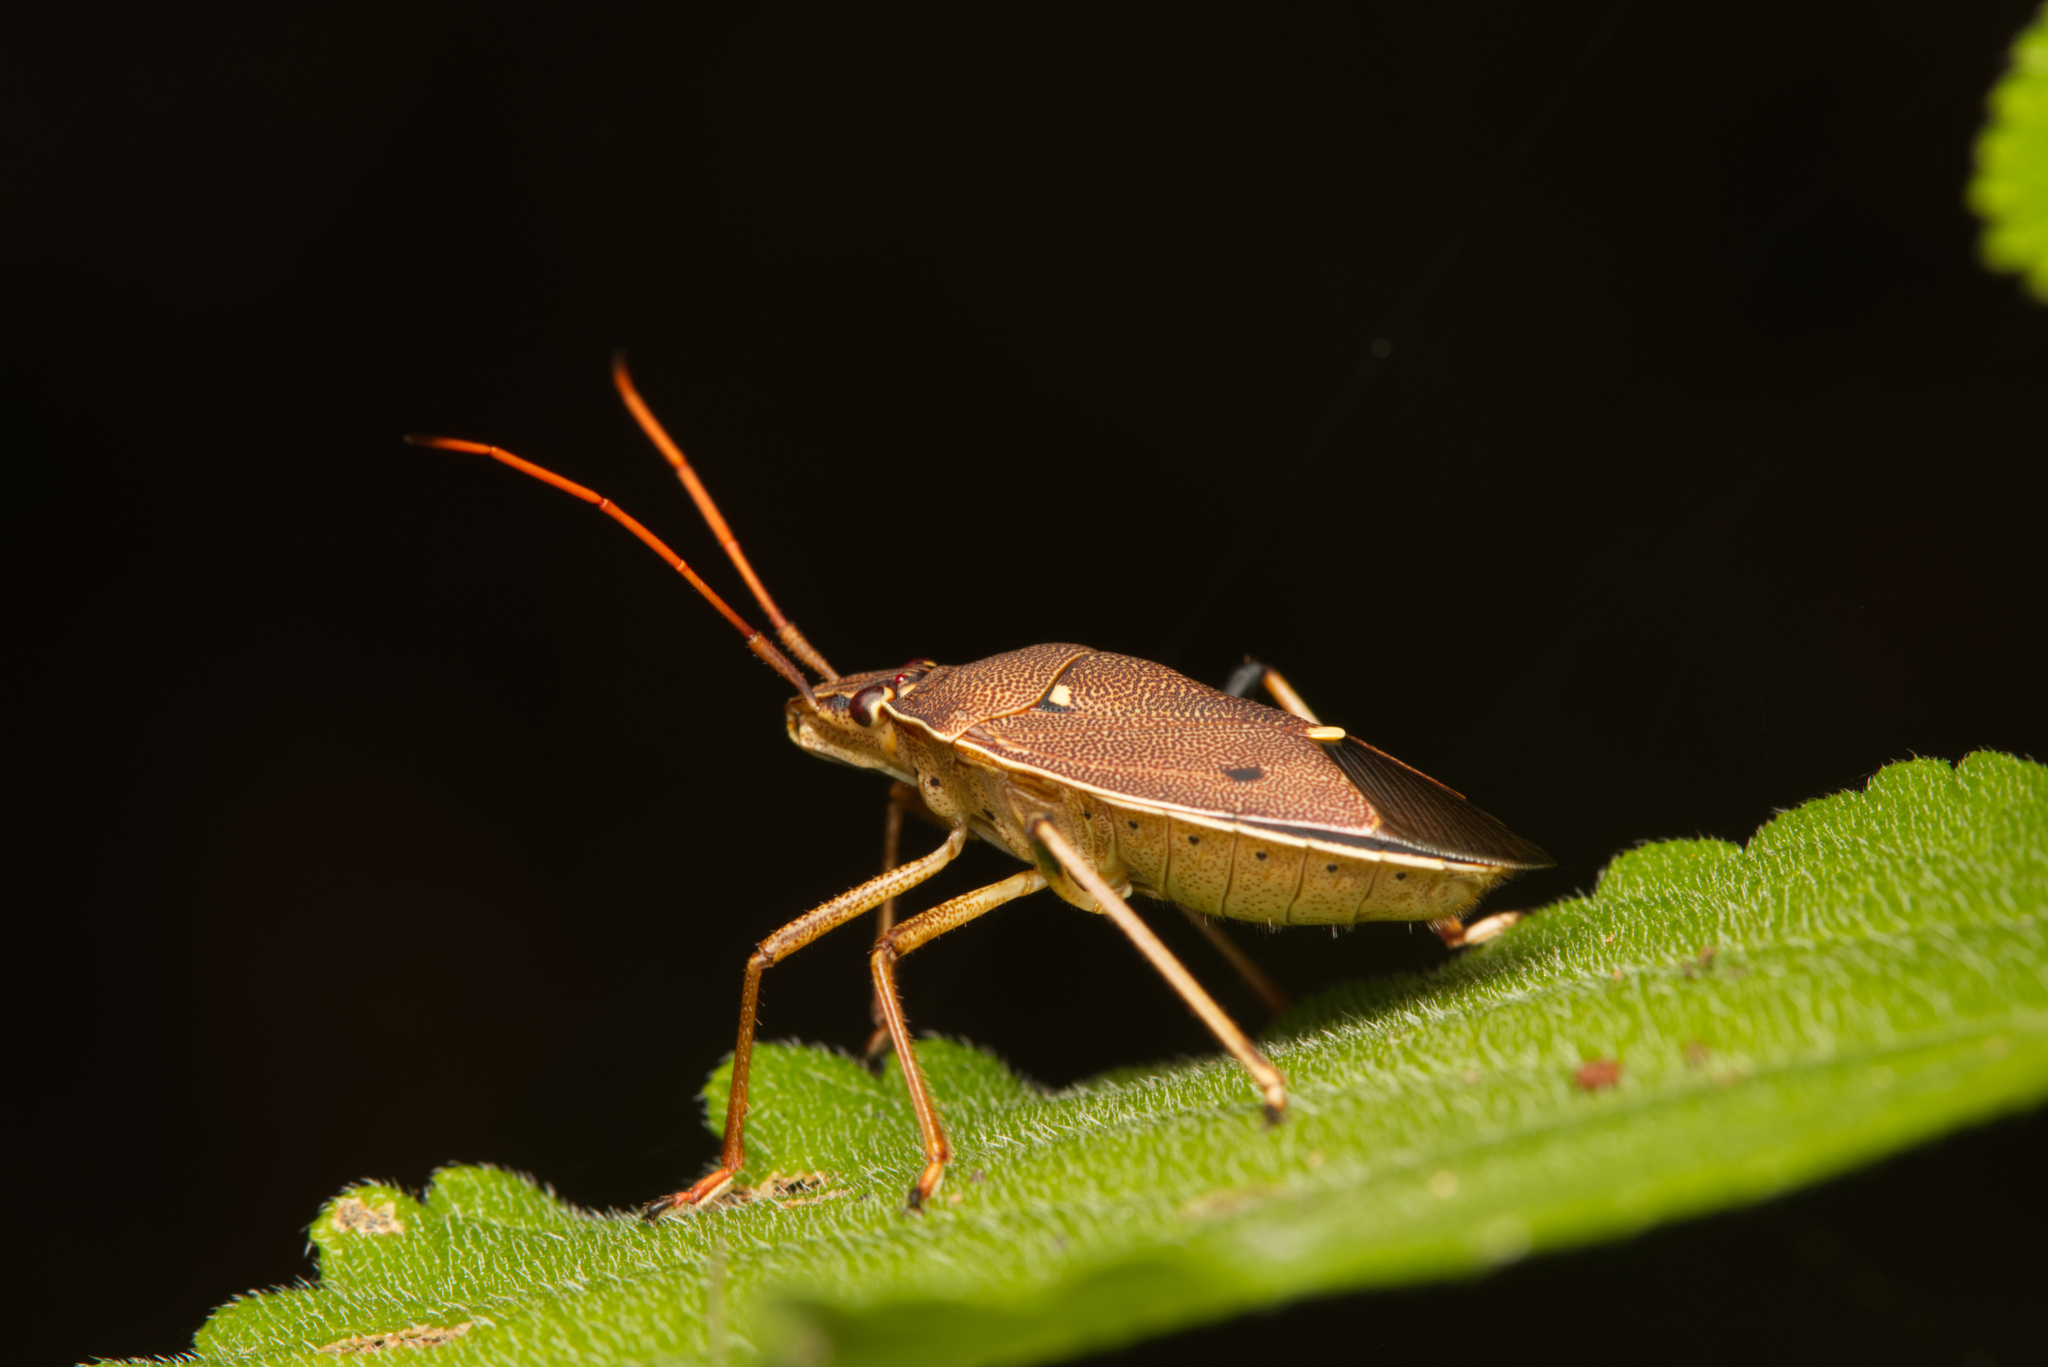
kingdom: Animalia
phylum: Arthropoda
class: Insecta
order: Hemiptera
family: Pentatomidae
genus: Poecilometis
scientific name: Poecilometis
